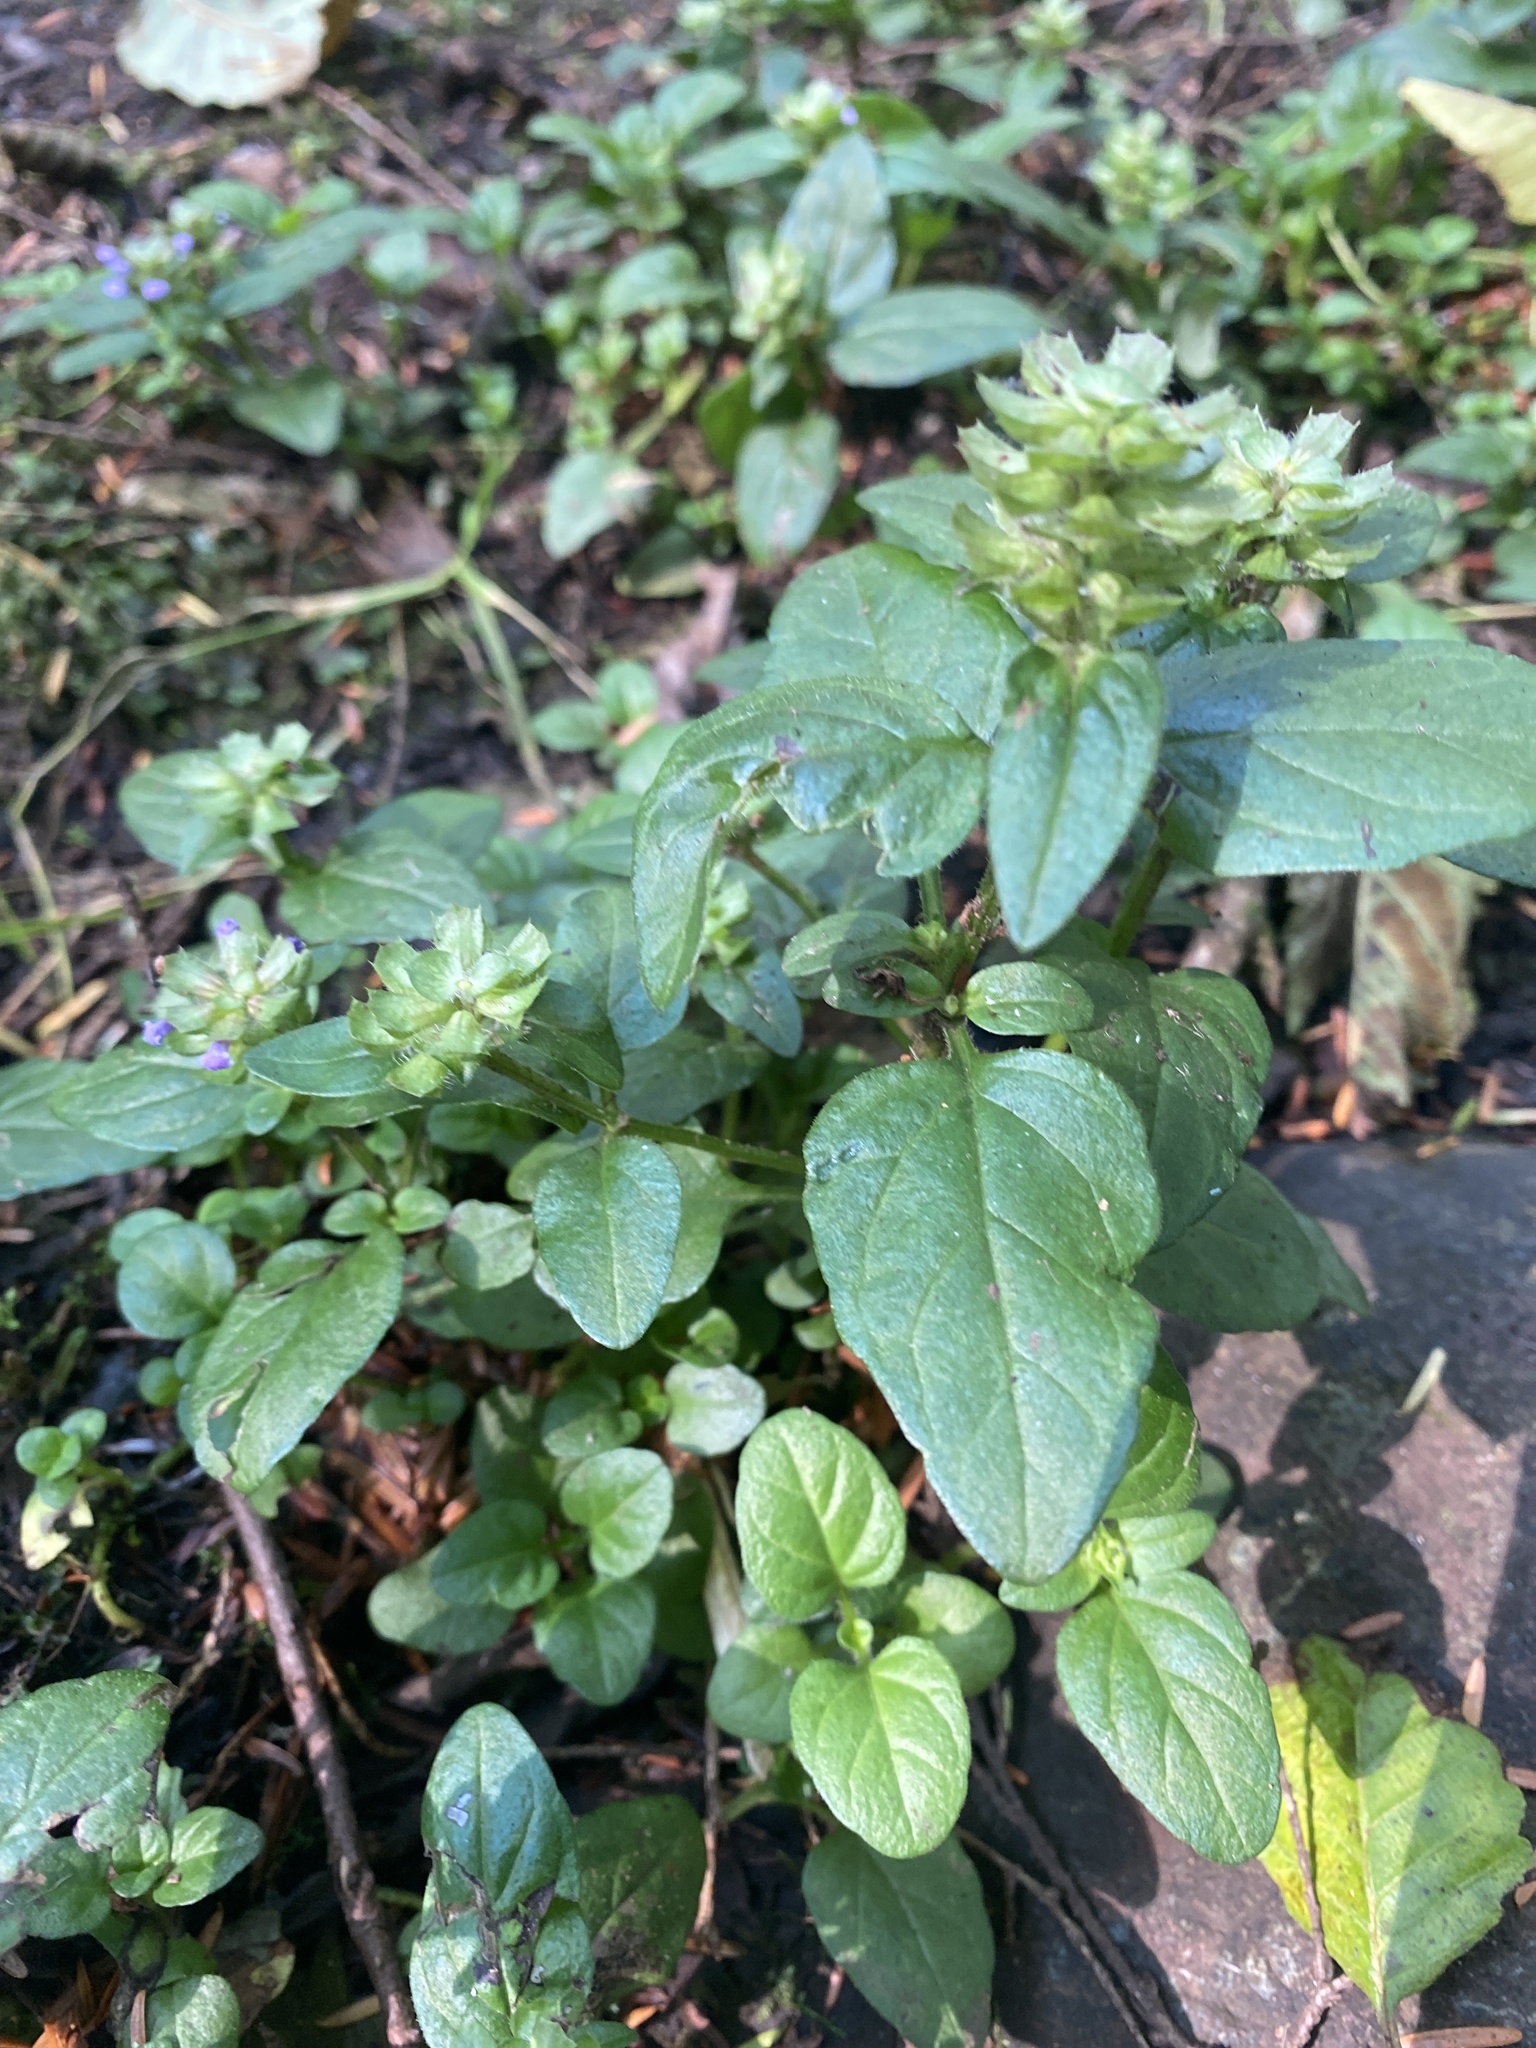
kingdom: Plantae
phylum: Tracheophyta
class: Magnoliopsida
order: Lamiales
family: Lamiaceae
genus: Prunella
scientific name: Prunella vulgaris
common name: Heal-all
